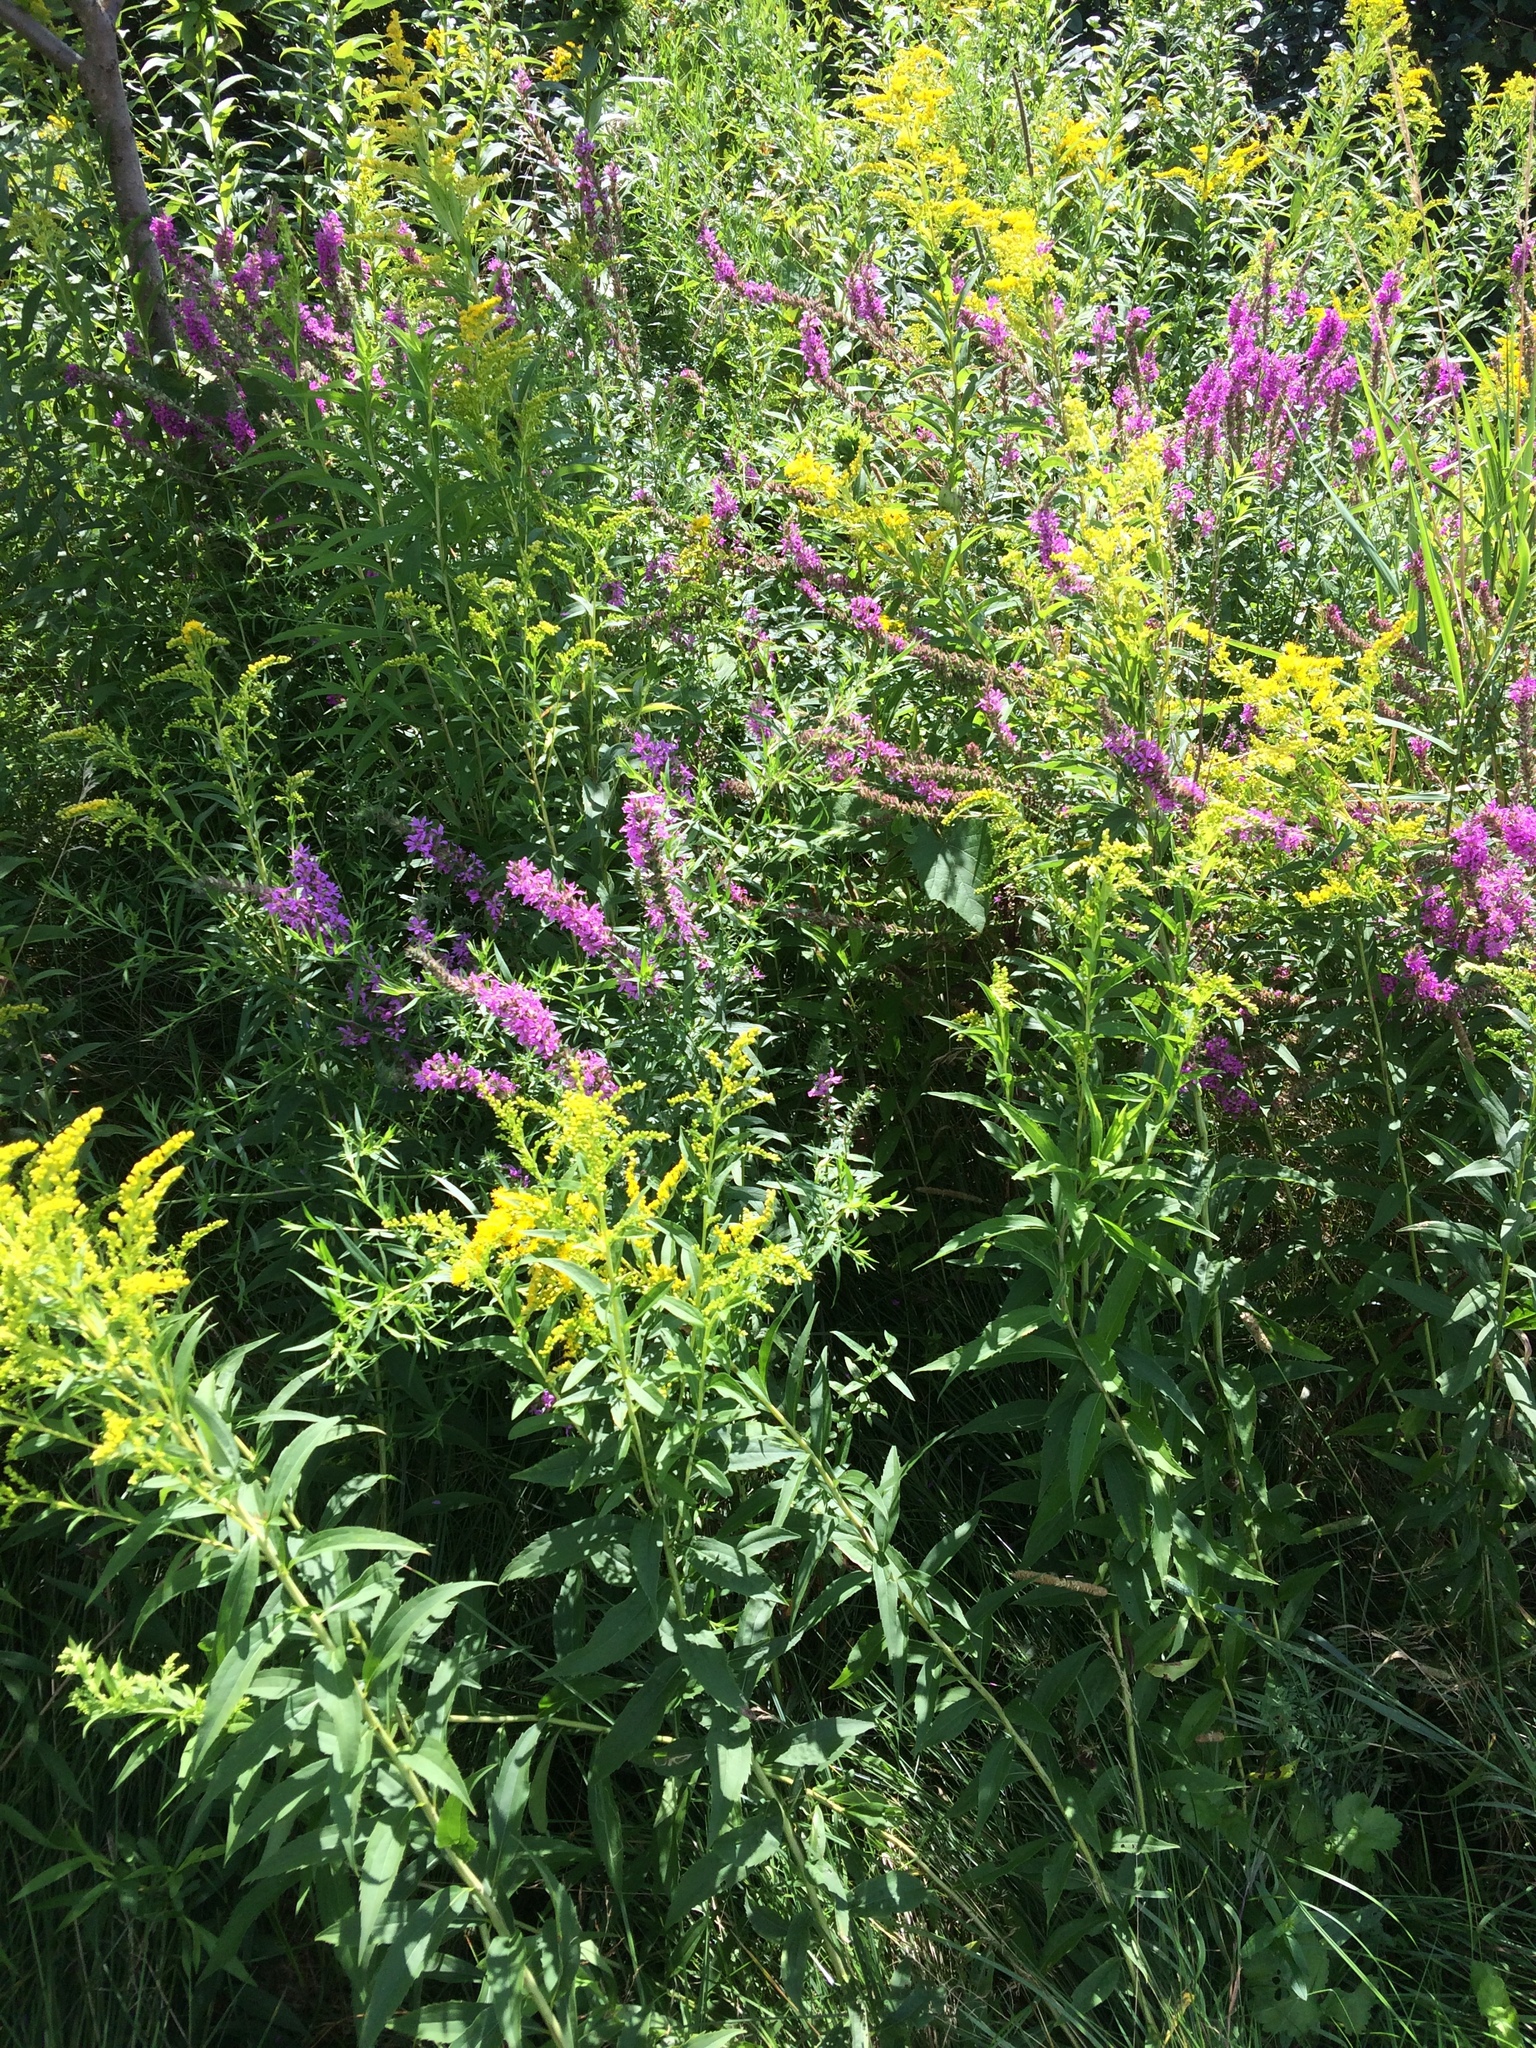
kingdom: Plantae
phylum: Tracheophyta
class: Magnoliopsida
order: Myrtales
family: Lythraceae
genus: Lythrum
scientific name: Lythrum salicaria
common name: Purple loosestrife
